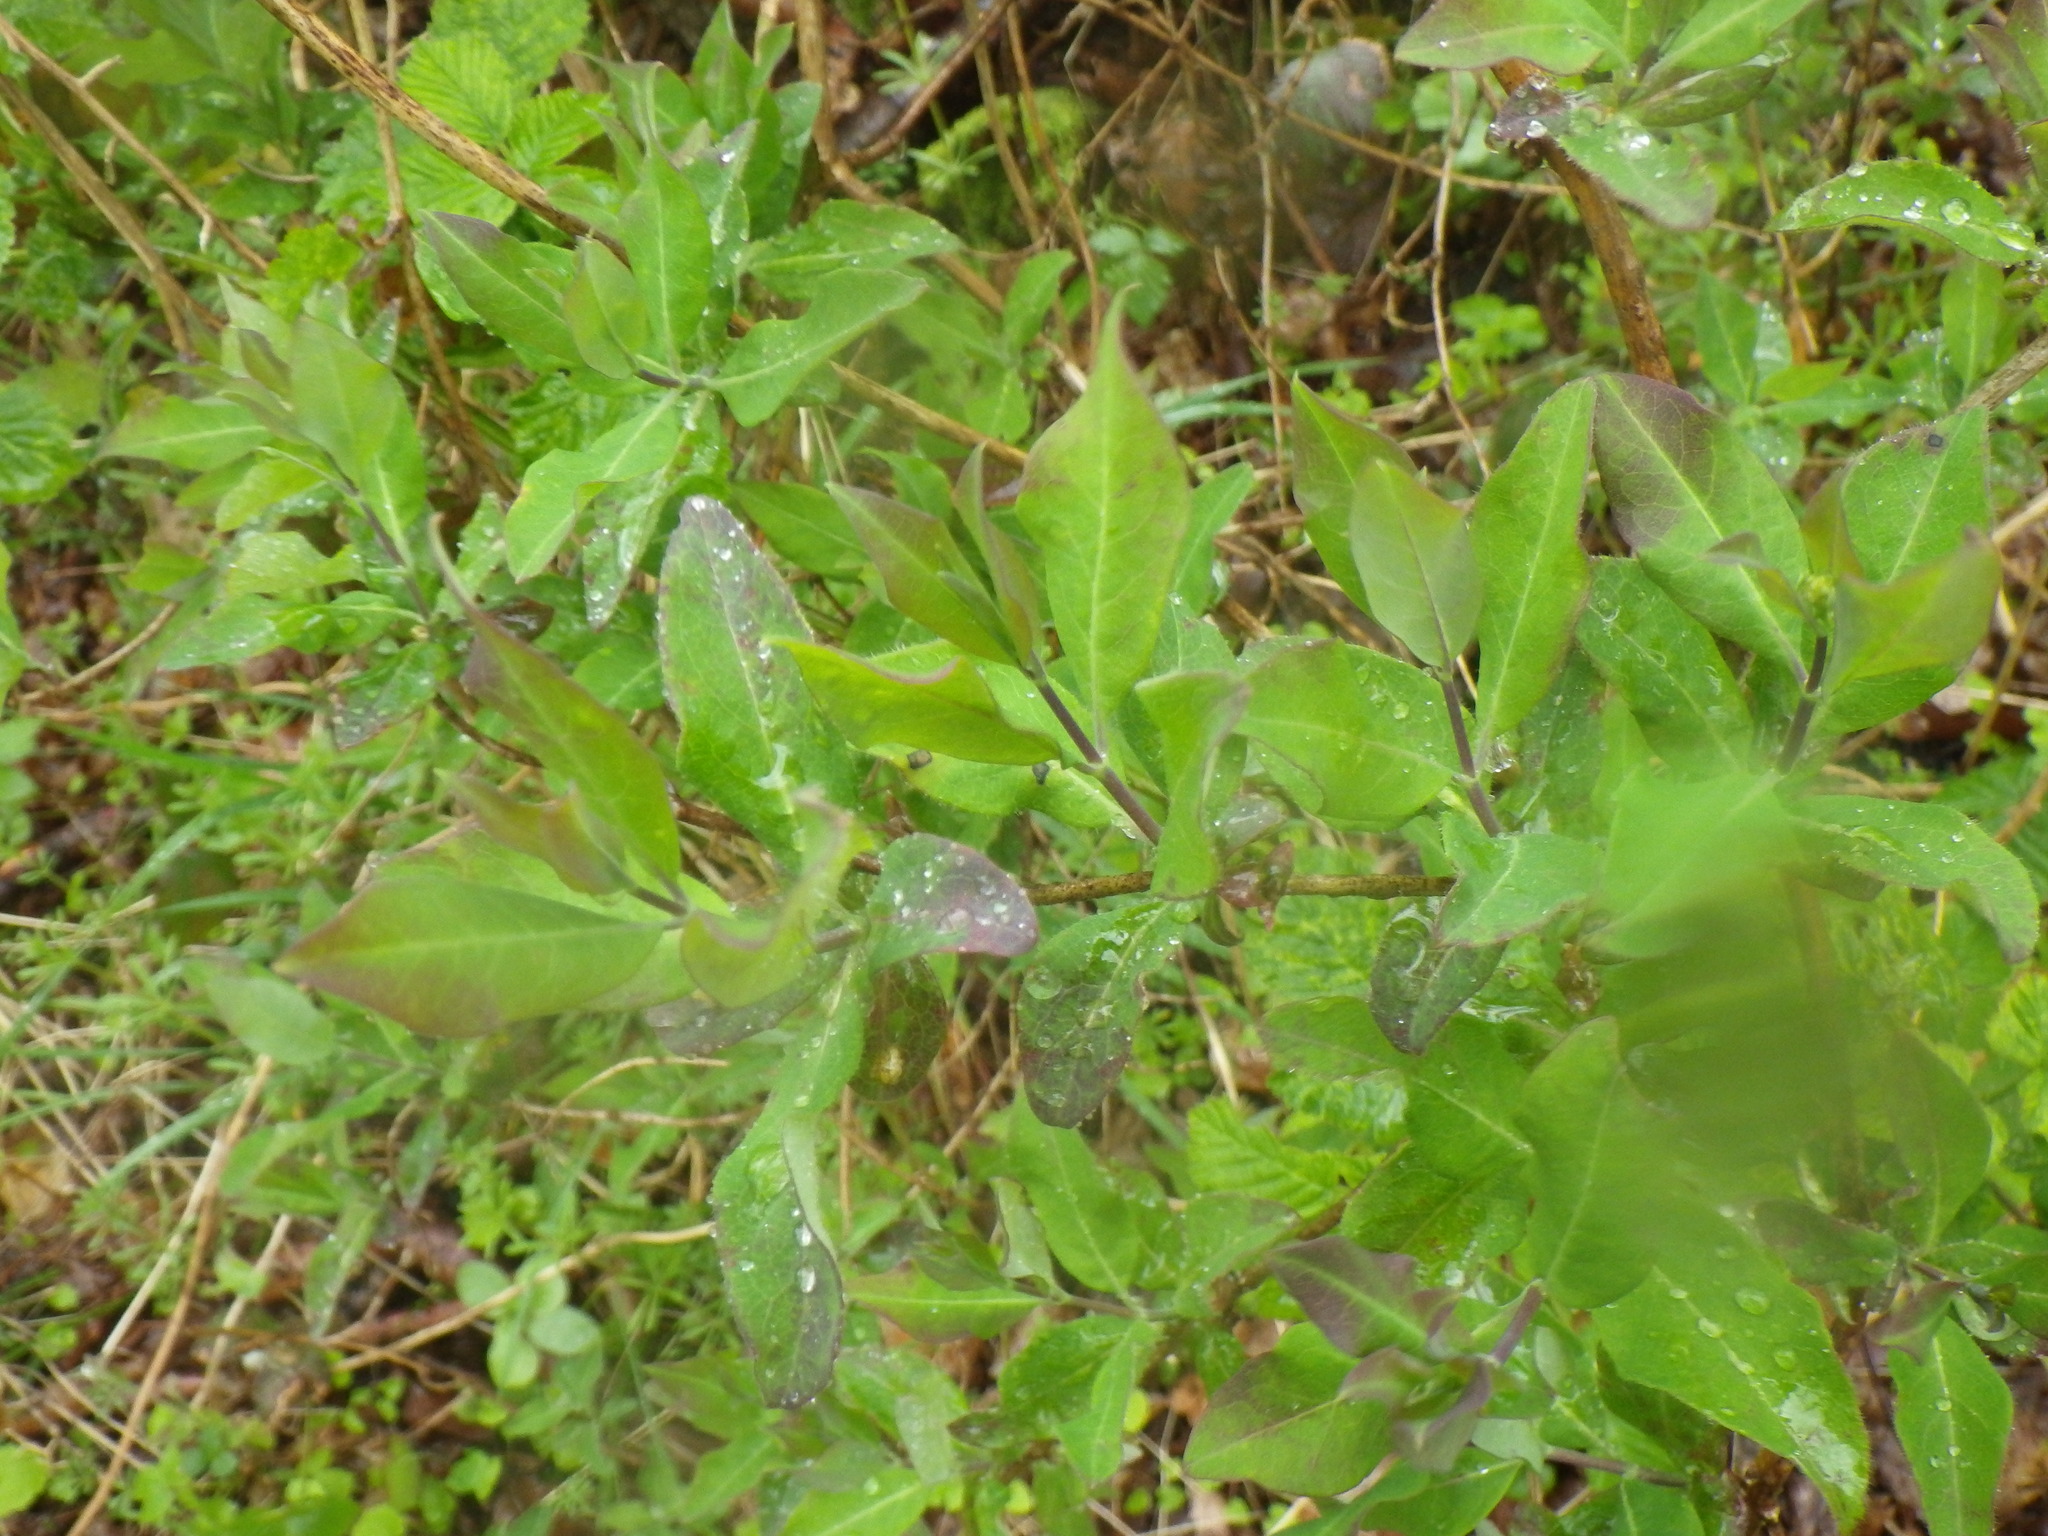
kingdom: Plantae
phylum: Tracheophyta
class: Magnoliopsida
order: Dipsacales
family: Caprifoliaceae
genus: Lonicera
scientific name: Lonicera periclymenum
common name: European honeysuckle
